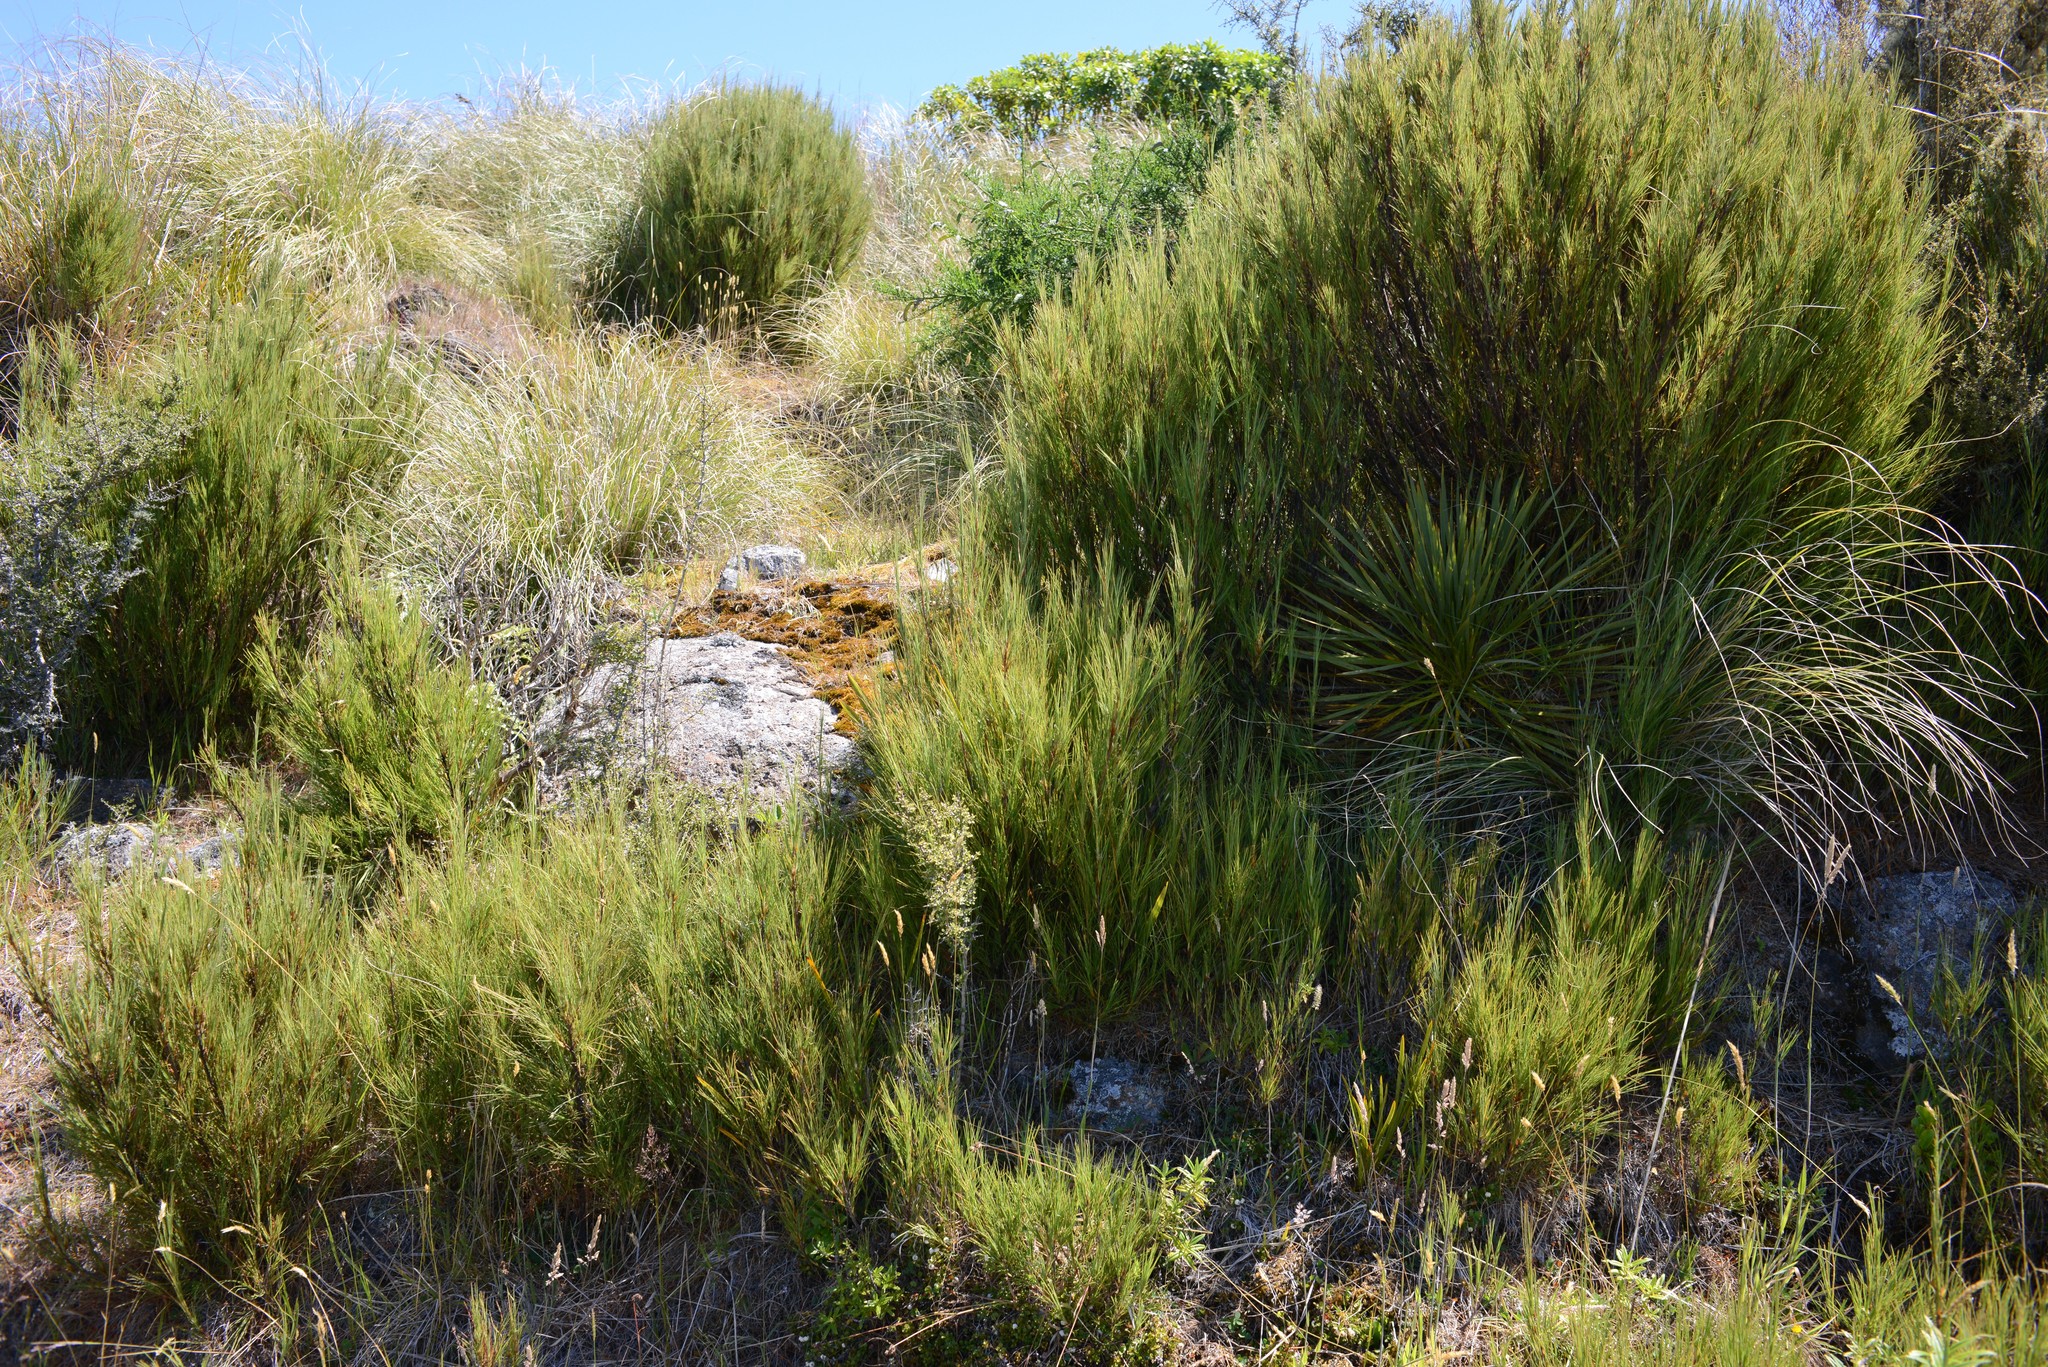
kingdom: Plantae
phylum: Tracheophyta
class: Magnoliopsida
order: Ericales
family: Ericaceae
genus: Dracophyllum
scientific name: Dracophyllum acerosum
